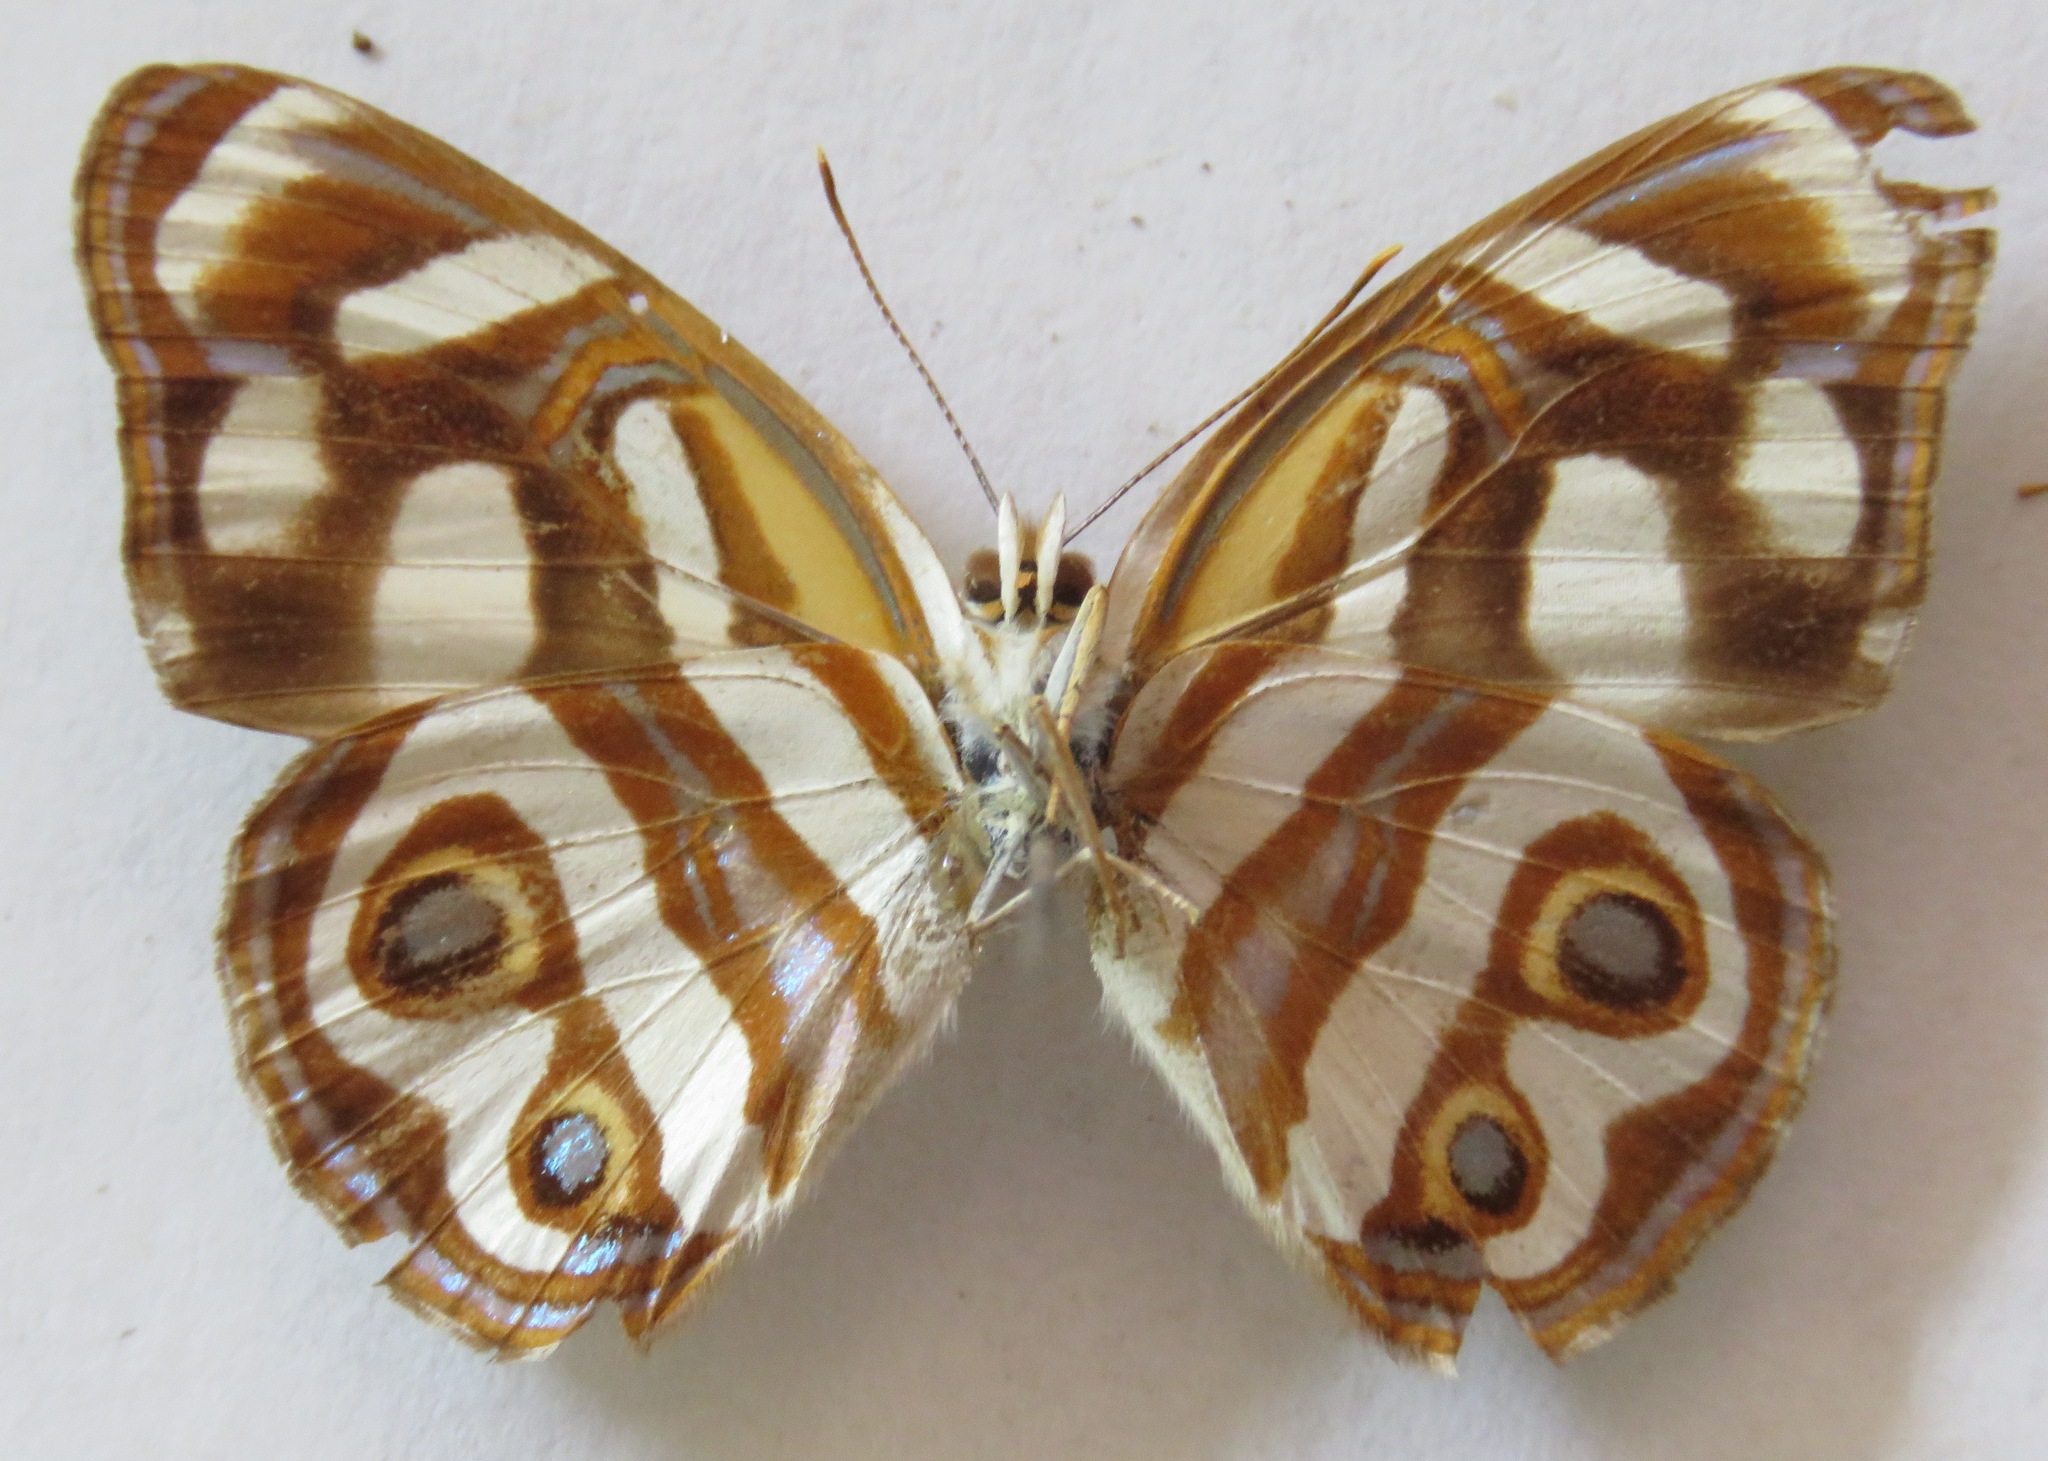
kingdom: Animalia
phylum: Arthropoda
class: Insecta
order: Lepidoptera
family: Nymphalidae
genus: Dynamine
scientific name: Dynamine dyonis
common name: Blue-eyed sailor
